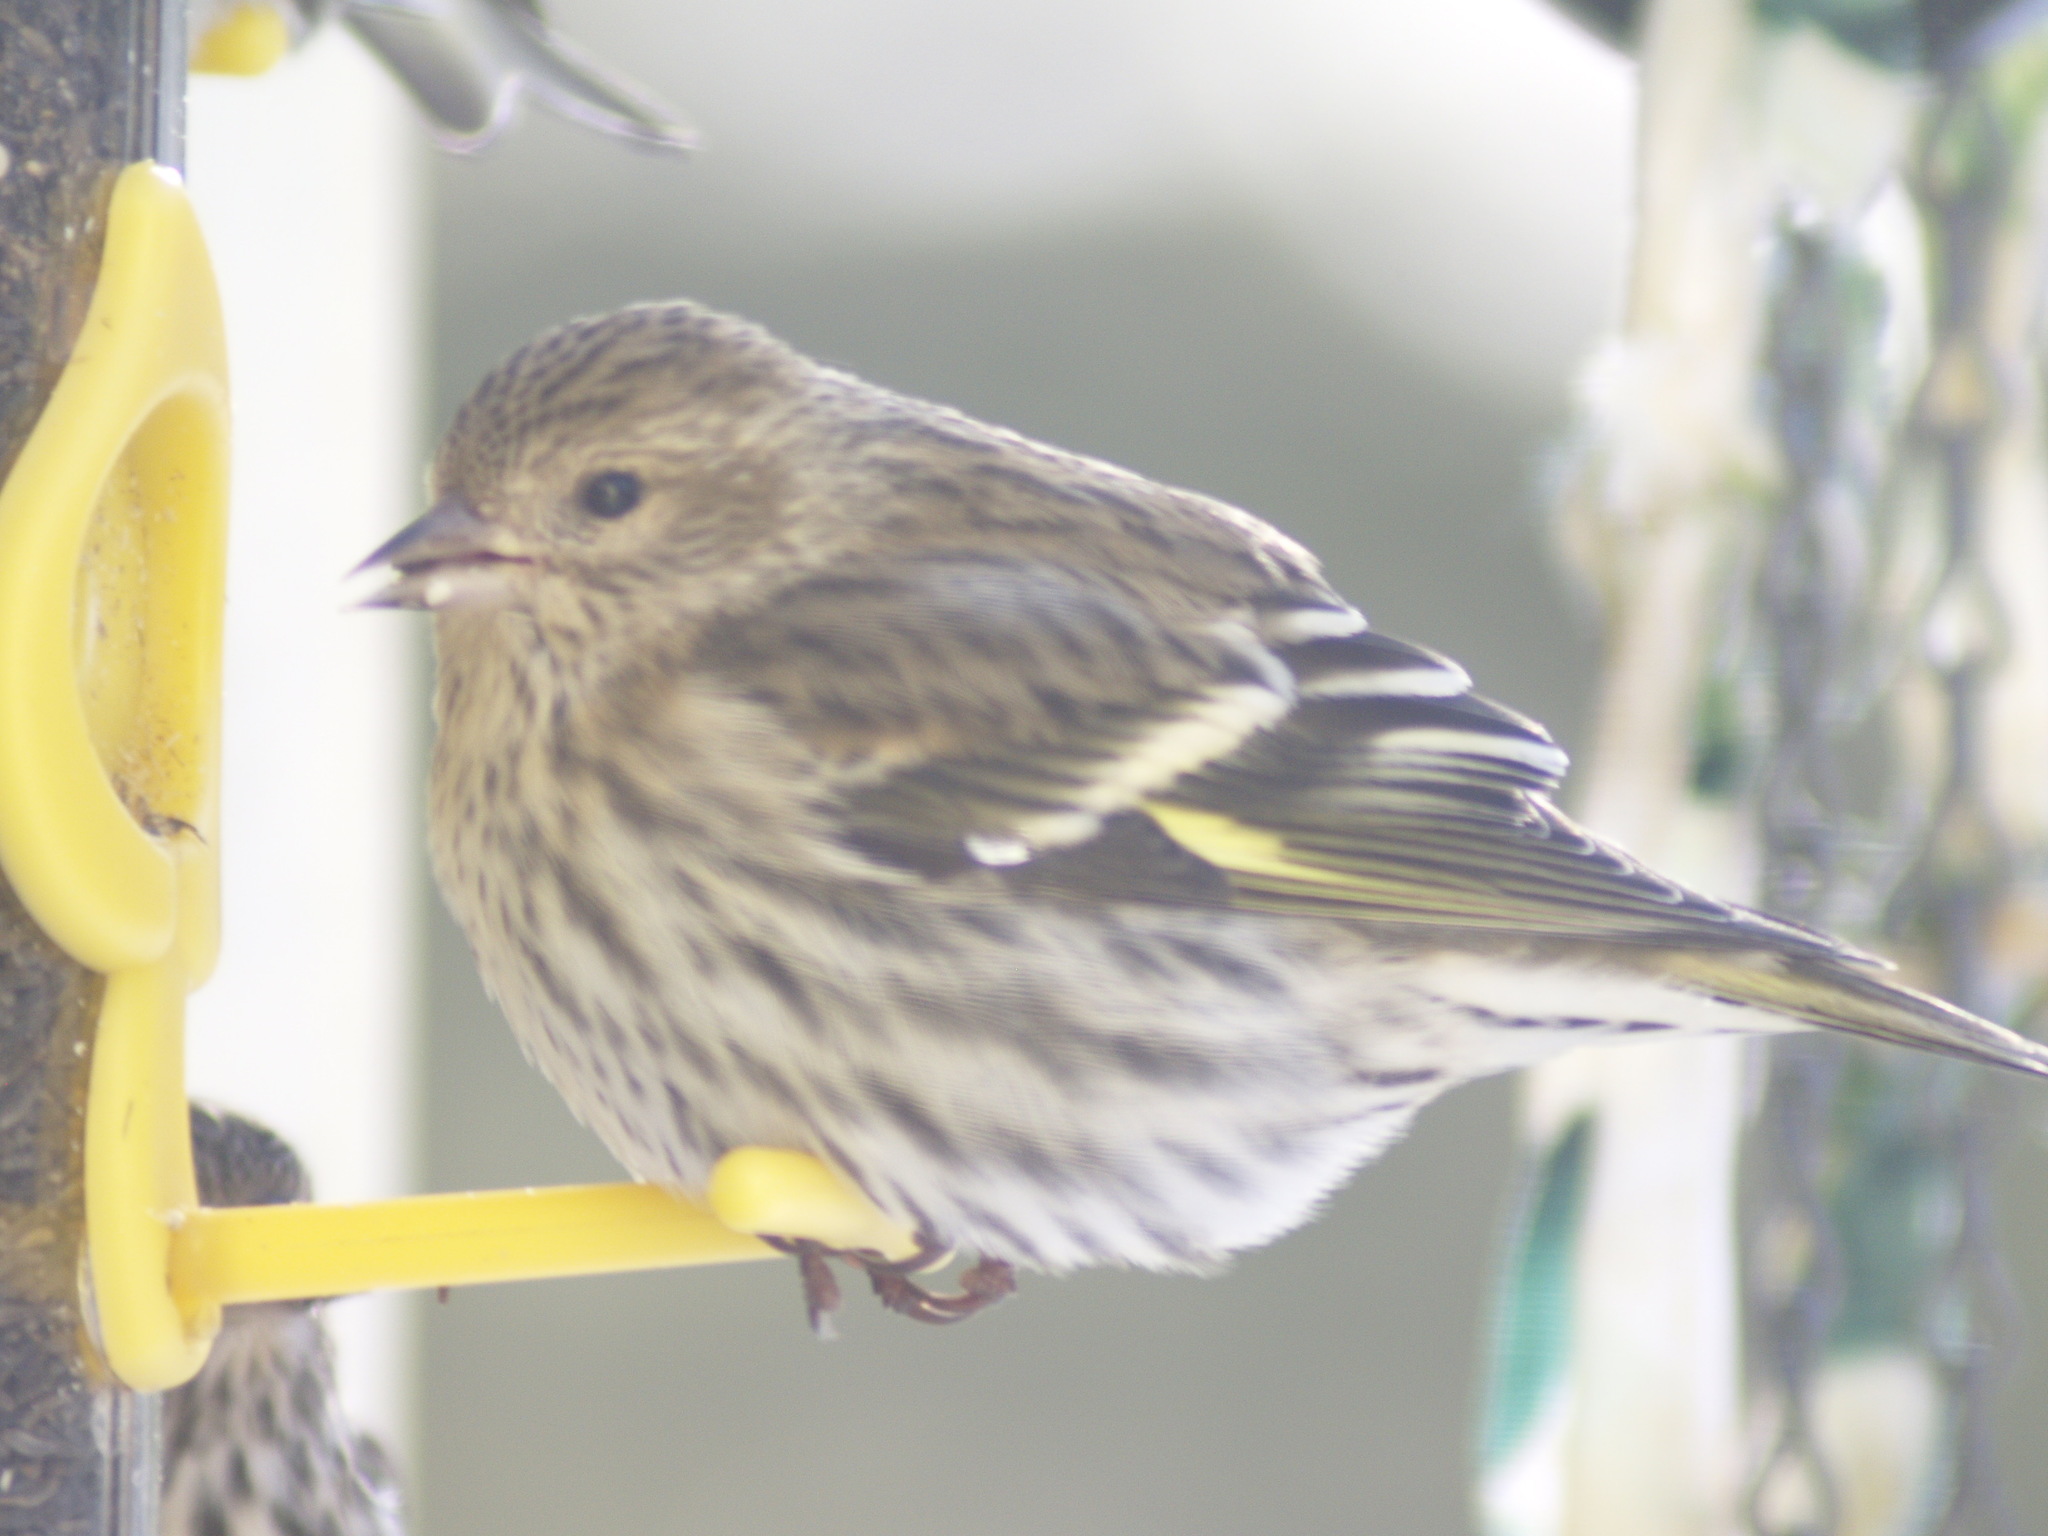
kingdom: Animalia
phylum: Chordata
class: Aves
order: Passeriformes
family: Fringillidae
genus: Spinus
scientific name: Spinus pinus
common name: Pine siskin
